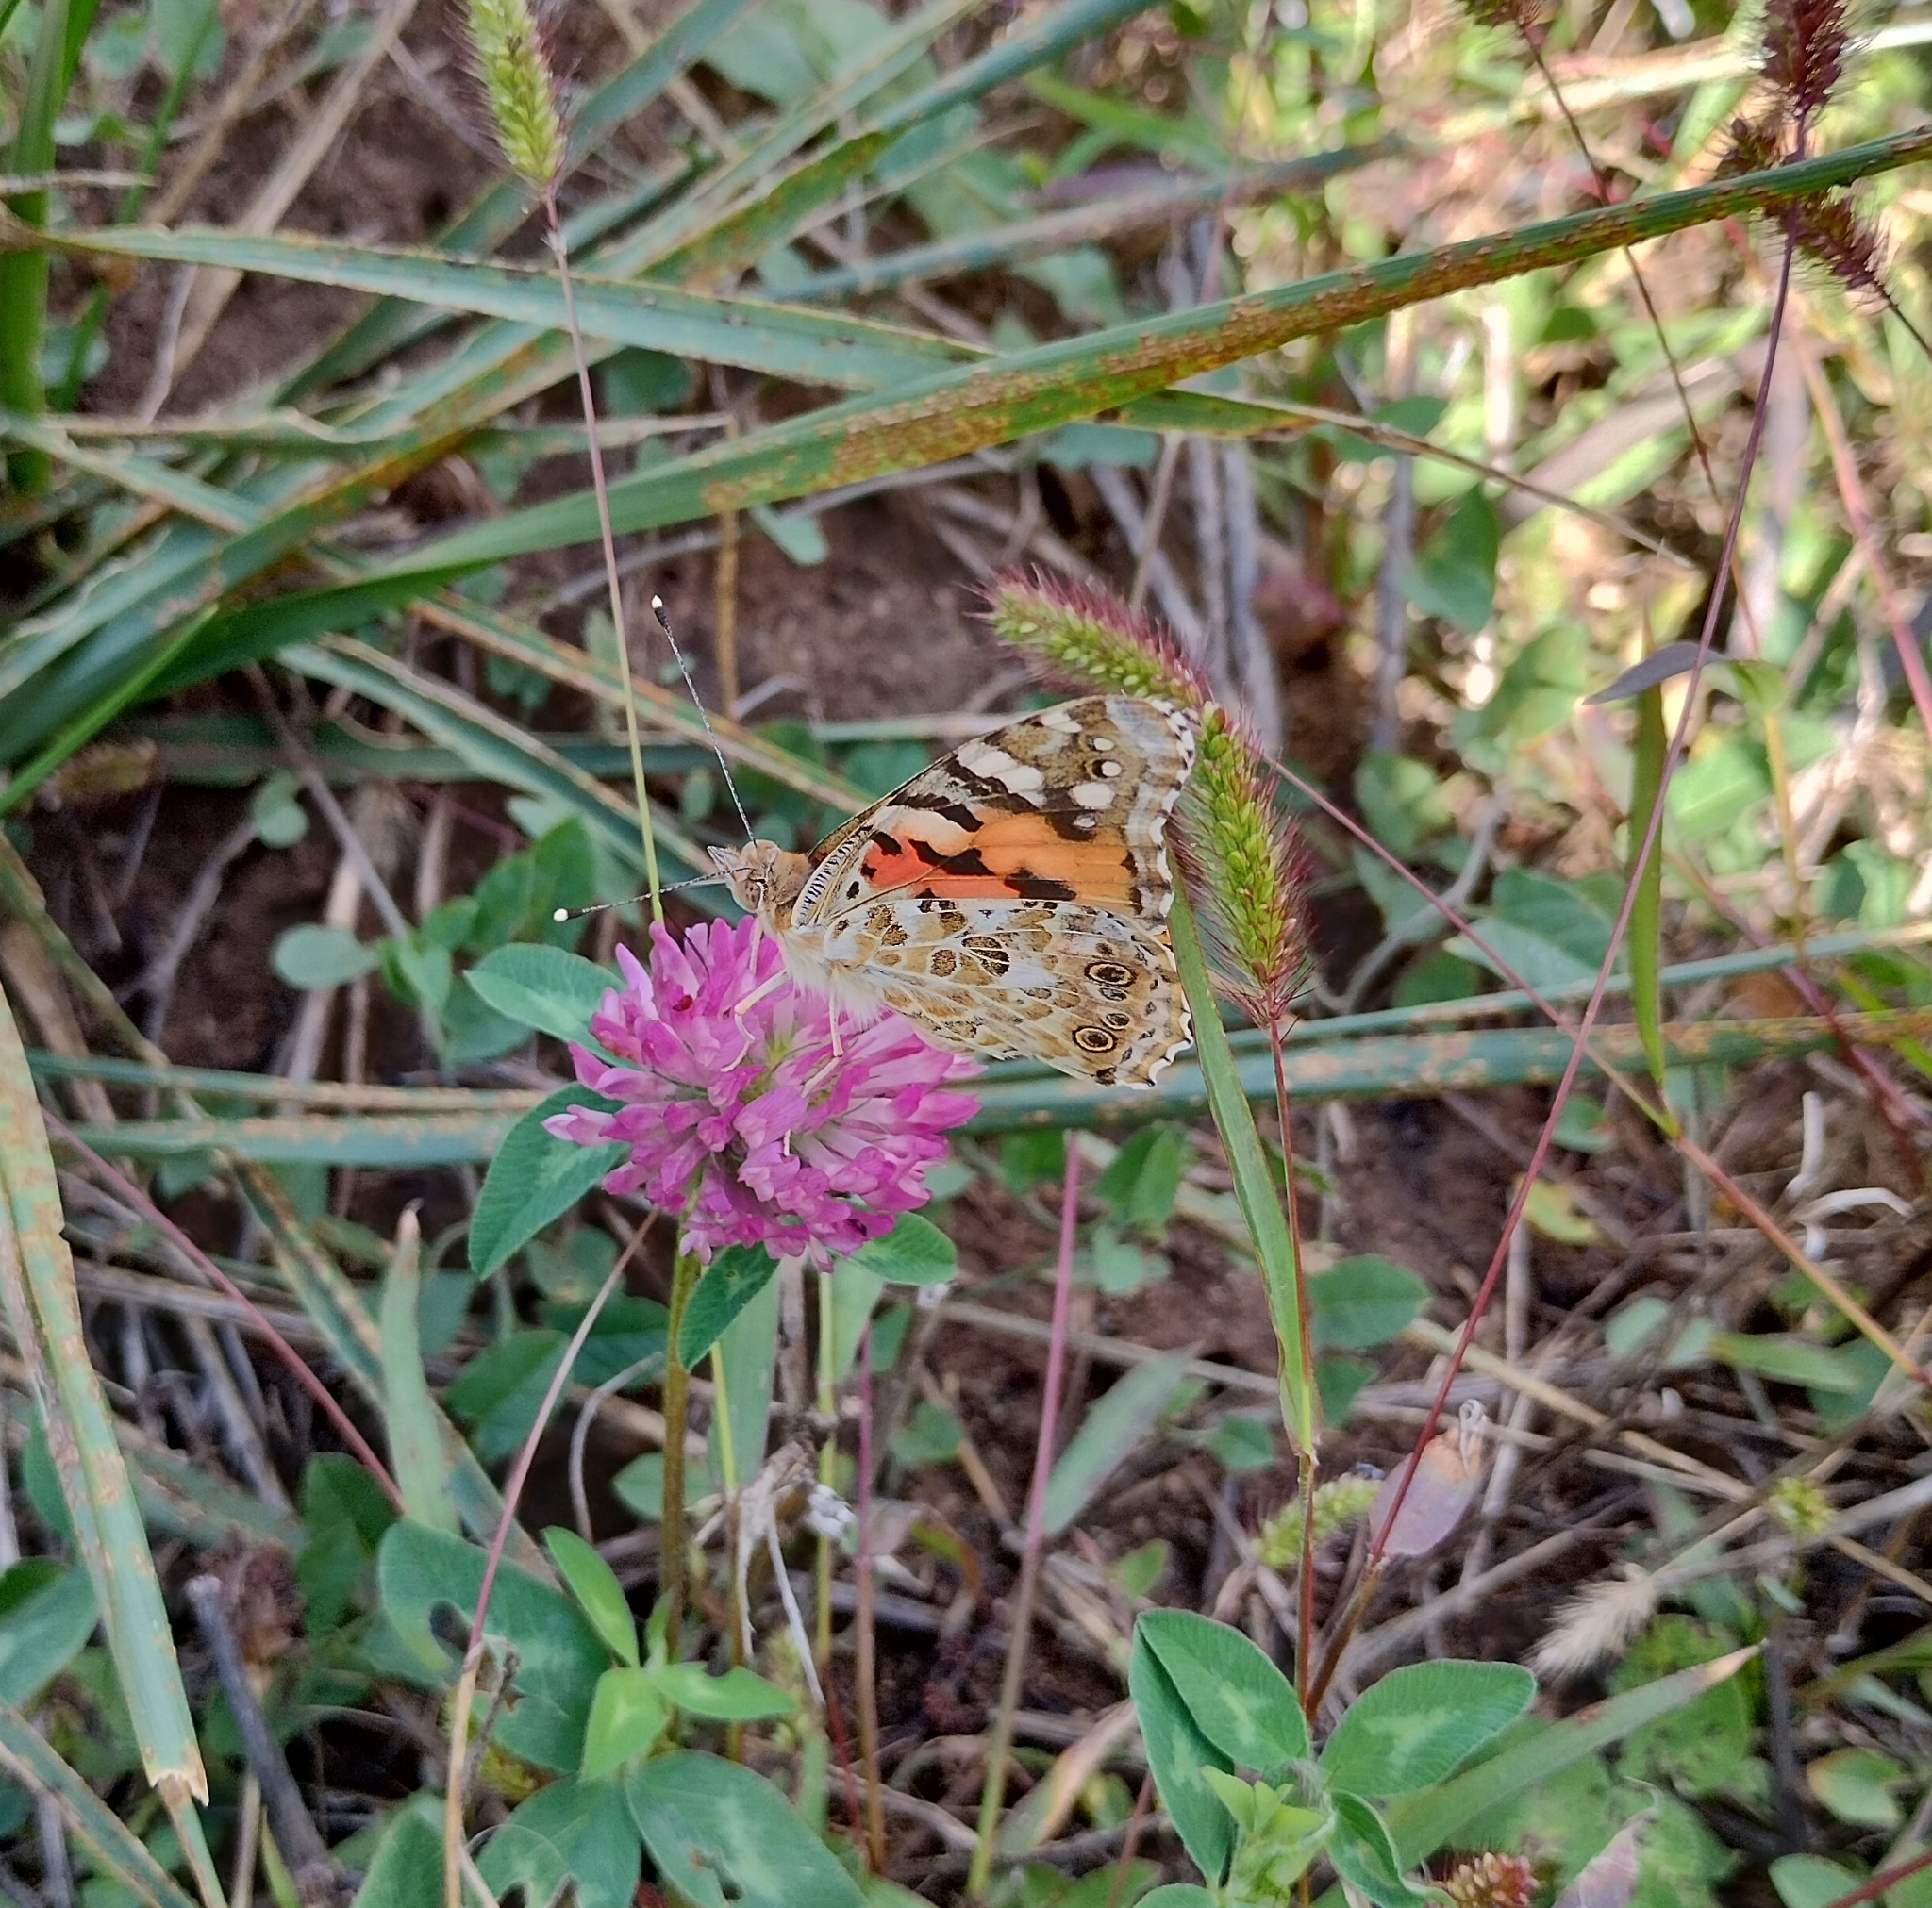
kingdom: Animalia
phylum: Arthropoda
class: Insecta
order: Lepidoptera
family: Nymphalidae
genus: Vanessa
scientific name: Vanessa cardui
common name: Painted lady
